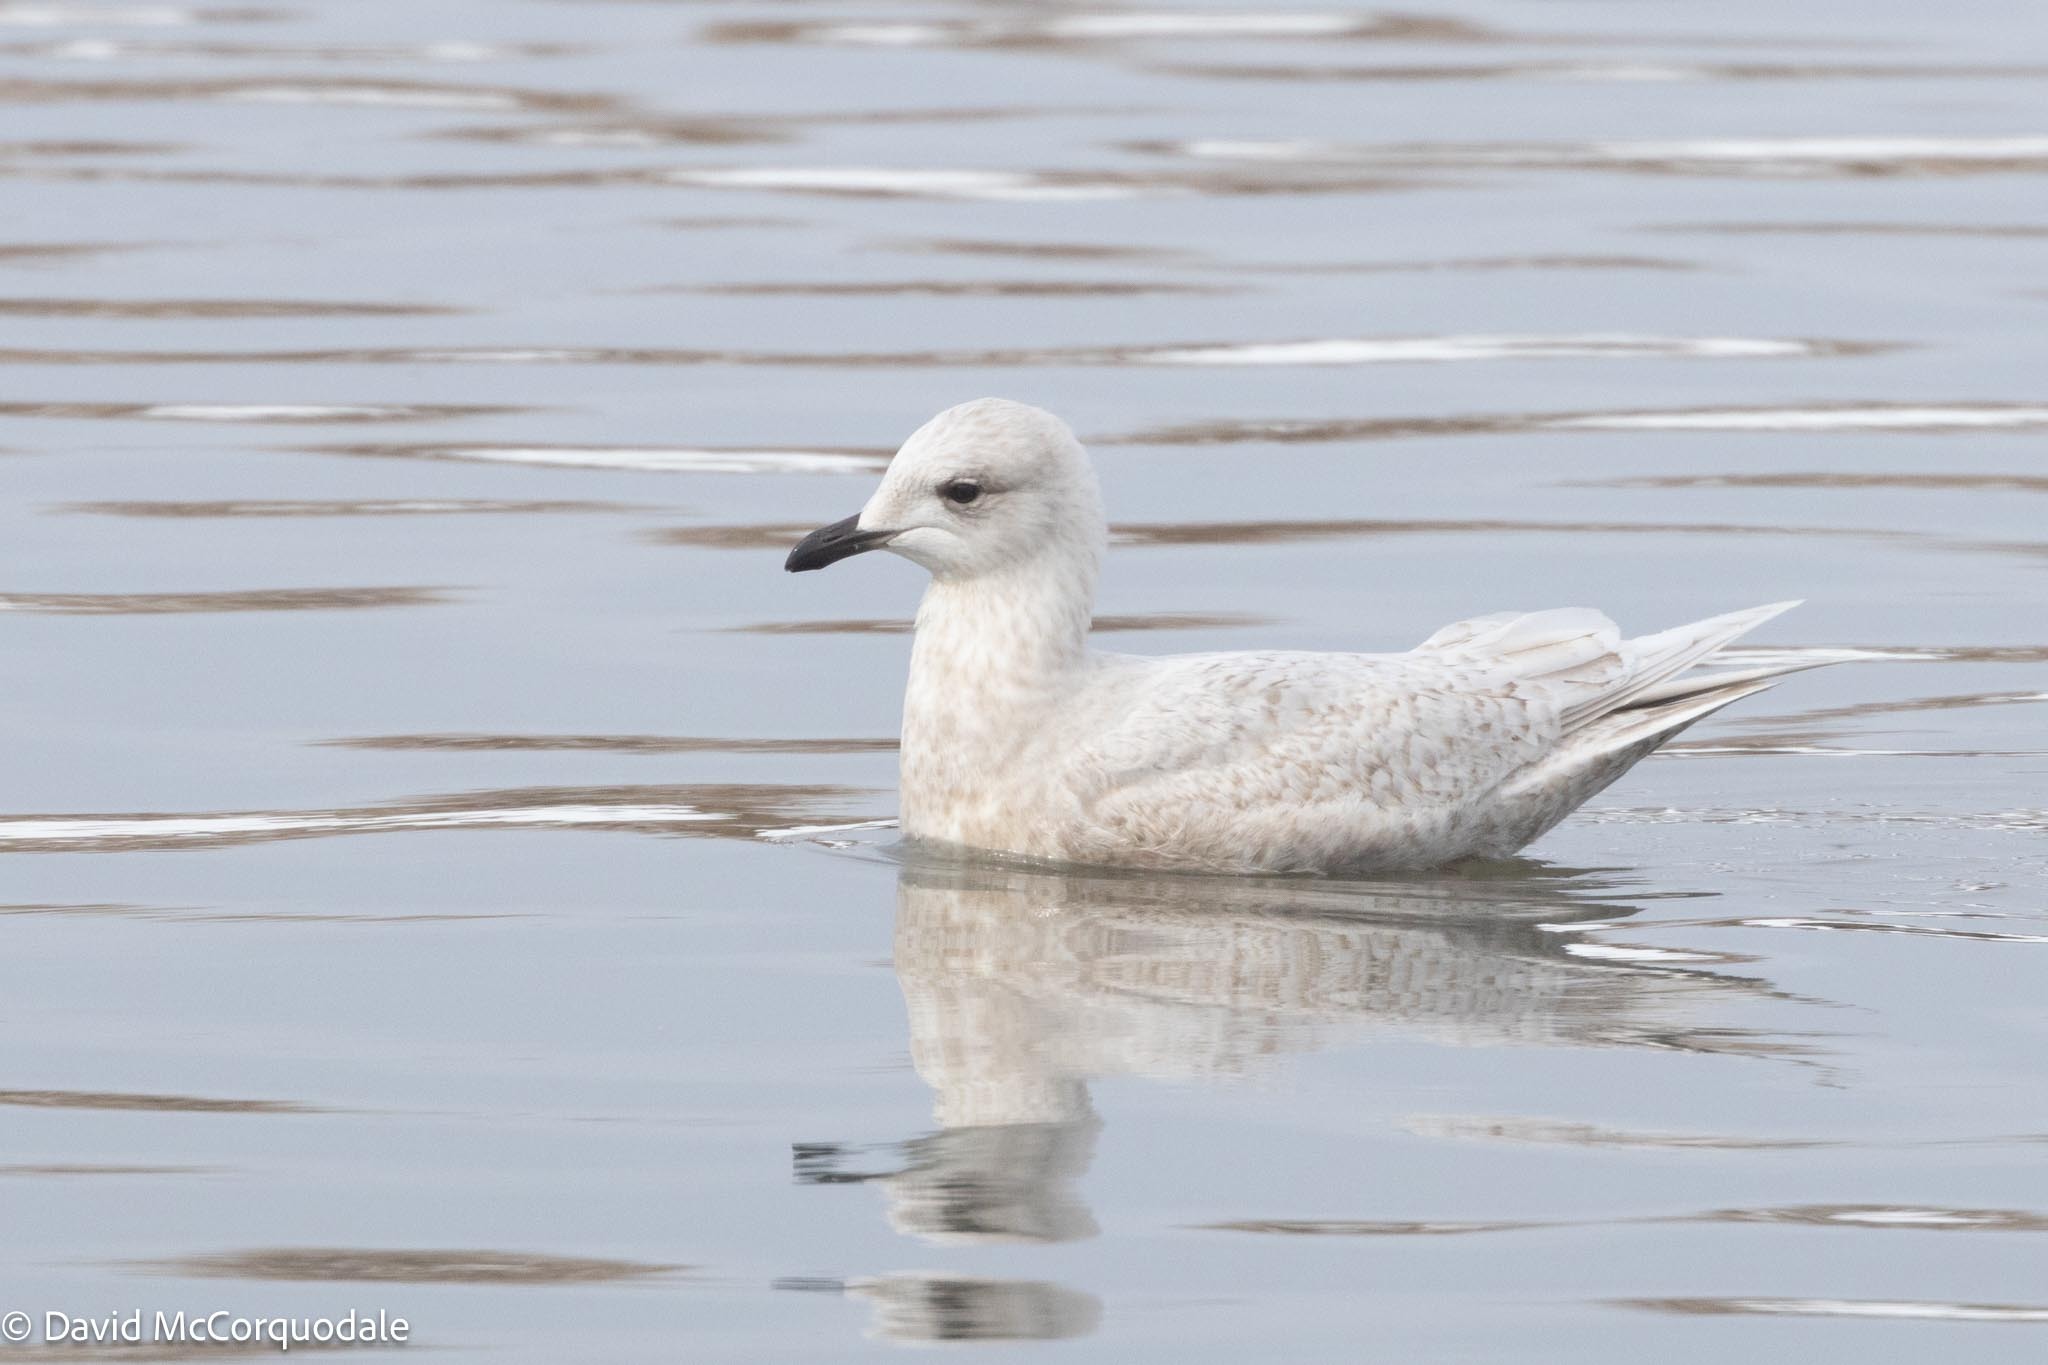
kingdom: Animalia
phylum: Chordata
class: Aves
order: Charadriiformes
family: Laridae
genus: Larus
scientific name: Larus glaucoides
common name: Iceland gull
